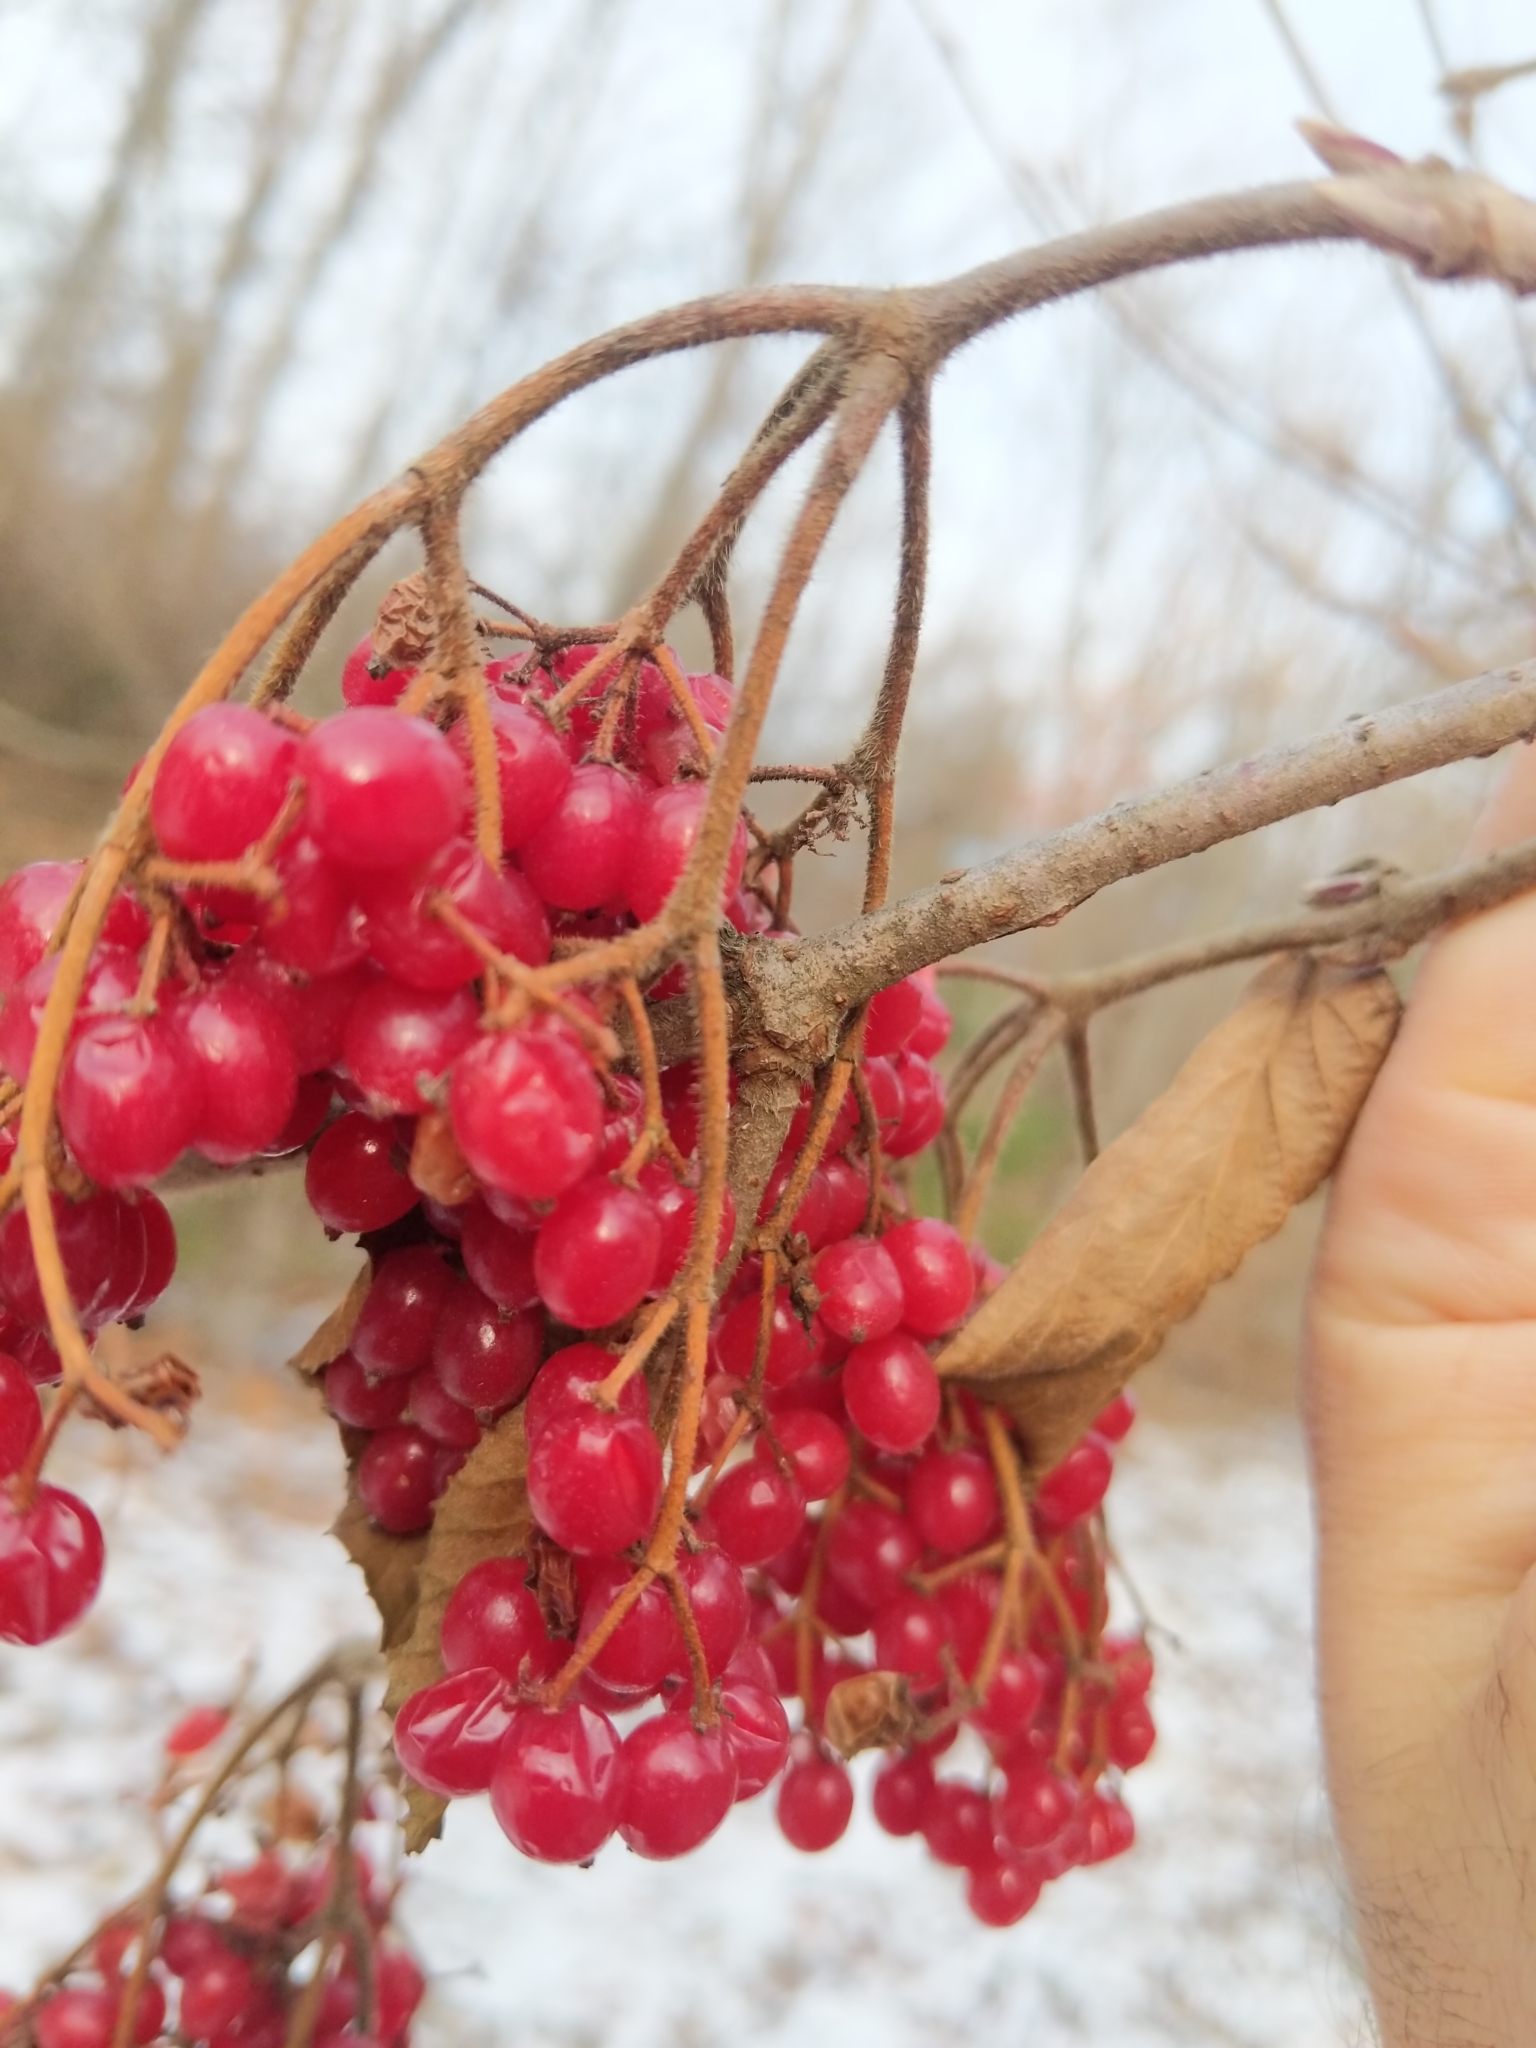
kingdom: Plantae
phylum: Tracheophyta
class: Magnoliopsida
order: Dipsacales
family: Viburnaceae
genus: Viburnum
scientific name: Viburnum dilatatum
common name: Linden arrowwood
